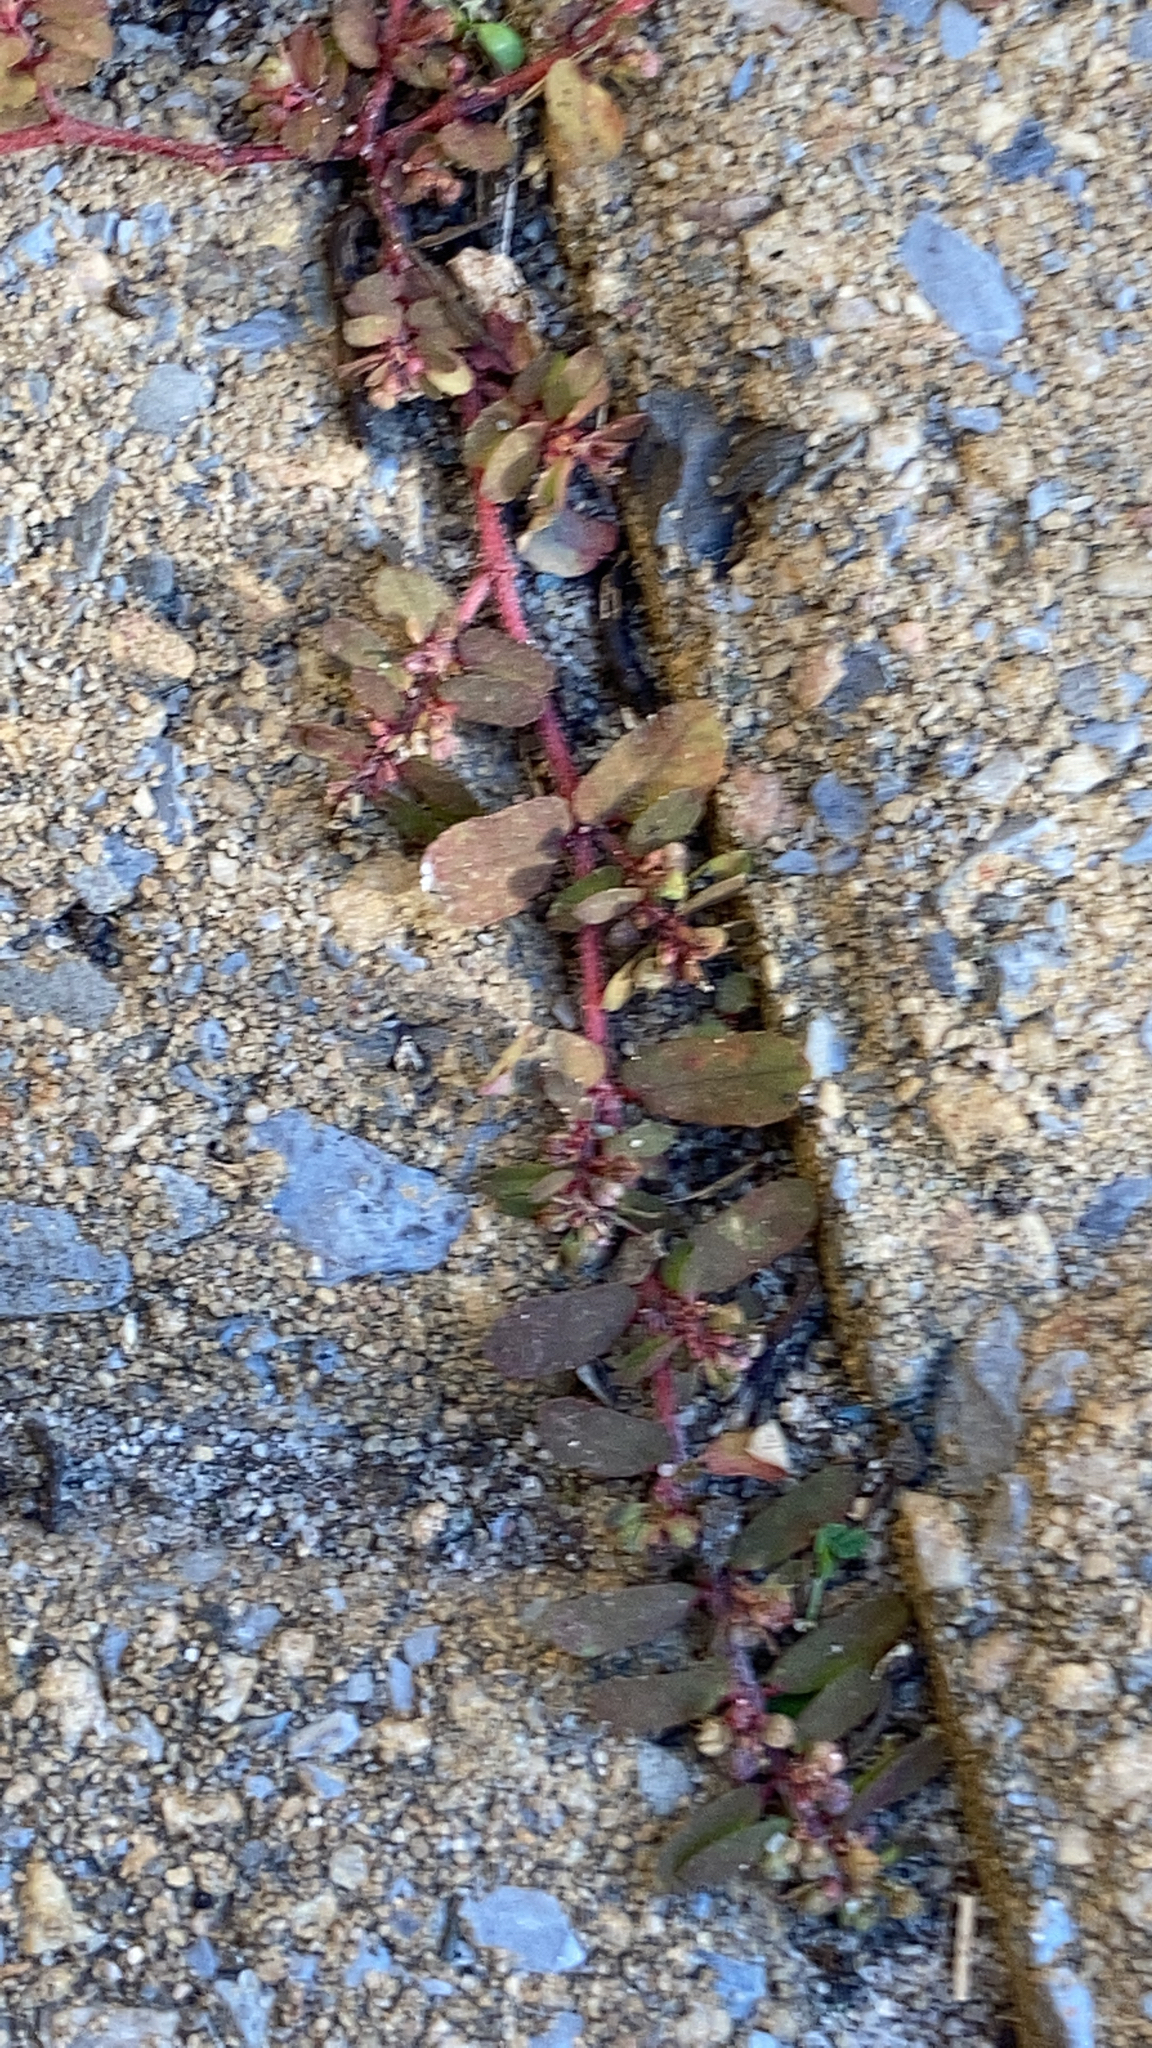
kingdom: Plantae
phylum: Tracheophyta
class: Magnoliopsida
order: Malpighiales
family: Euphorbiaceae
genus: Euphorbia
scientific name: Euphorbia maculata
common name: Spotted spurge
